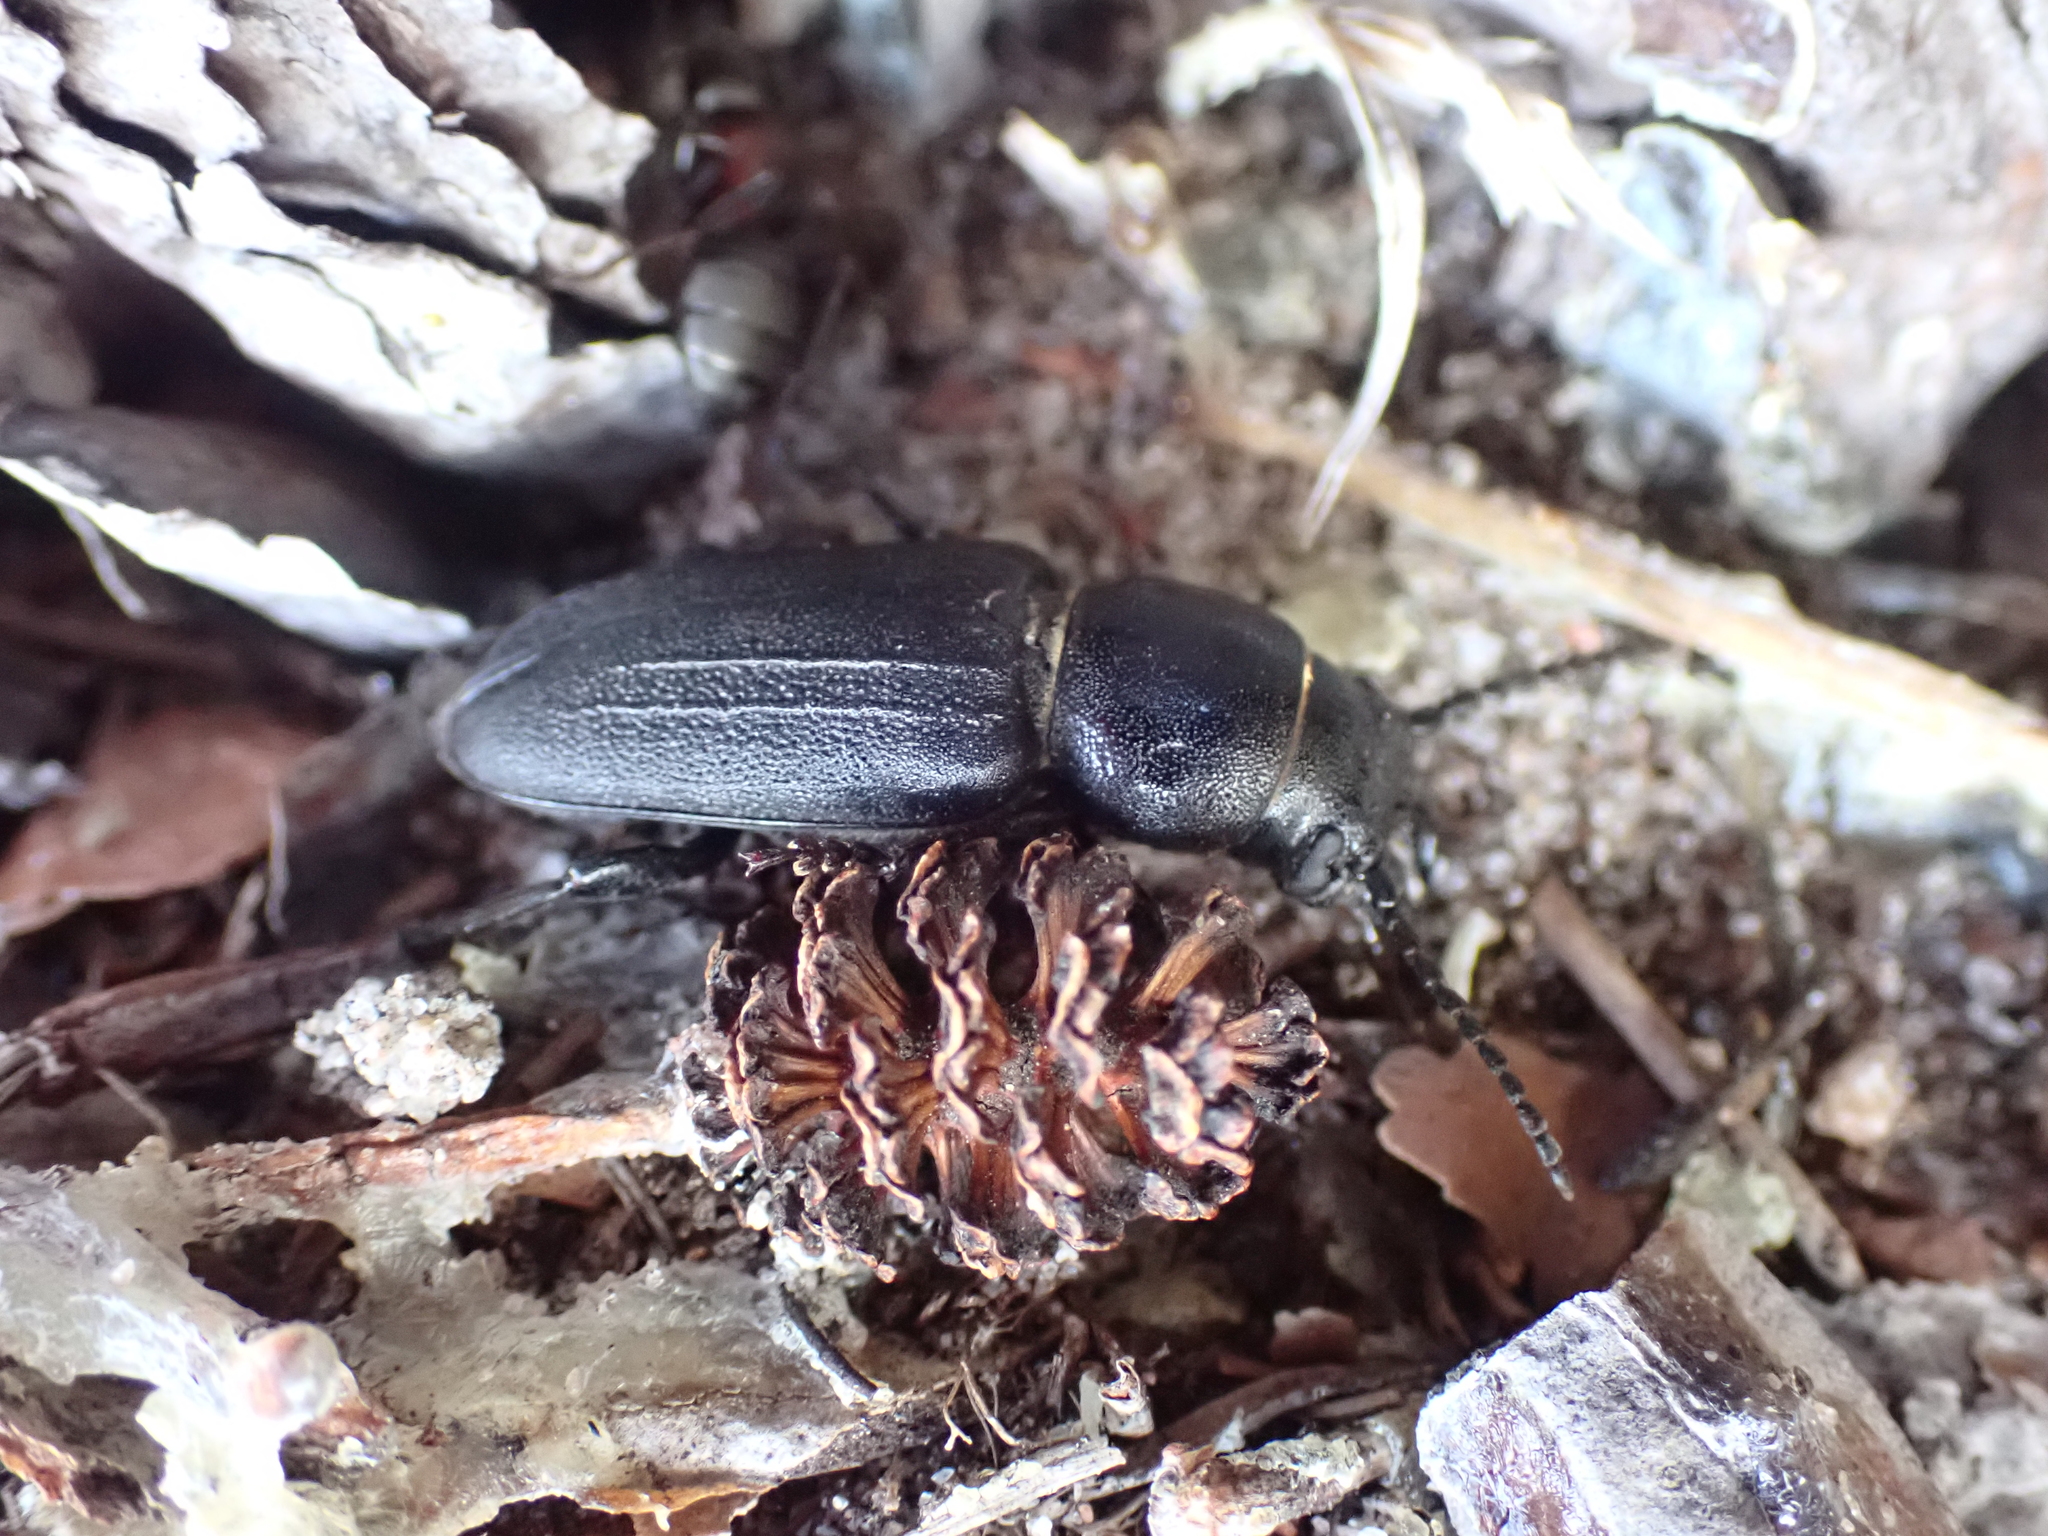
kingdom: Animalia
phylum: Arthropoda
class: Insecta
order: Coleoptera
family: Cerambycidae
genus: Spondylis
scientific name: Spondylis buprestoides
